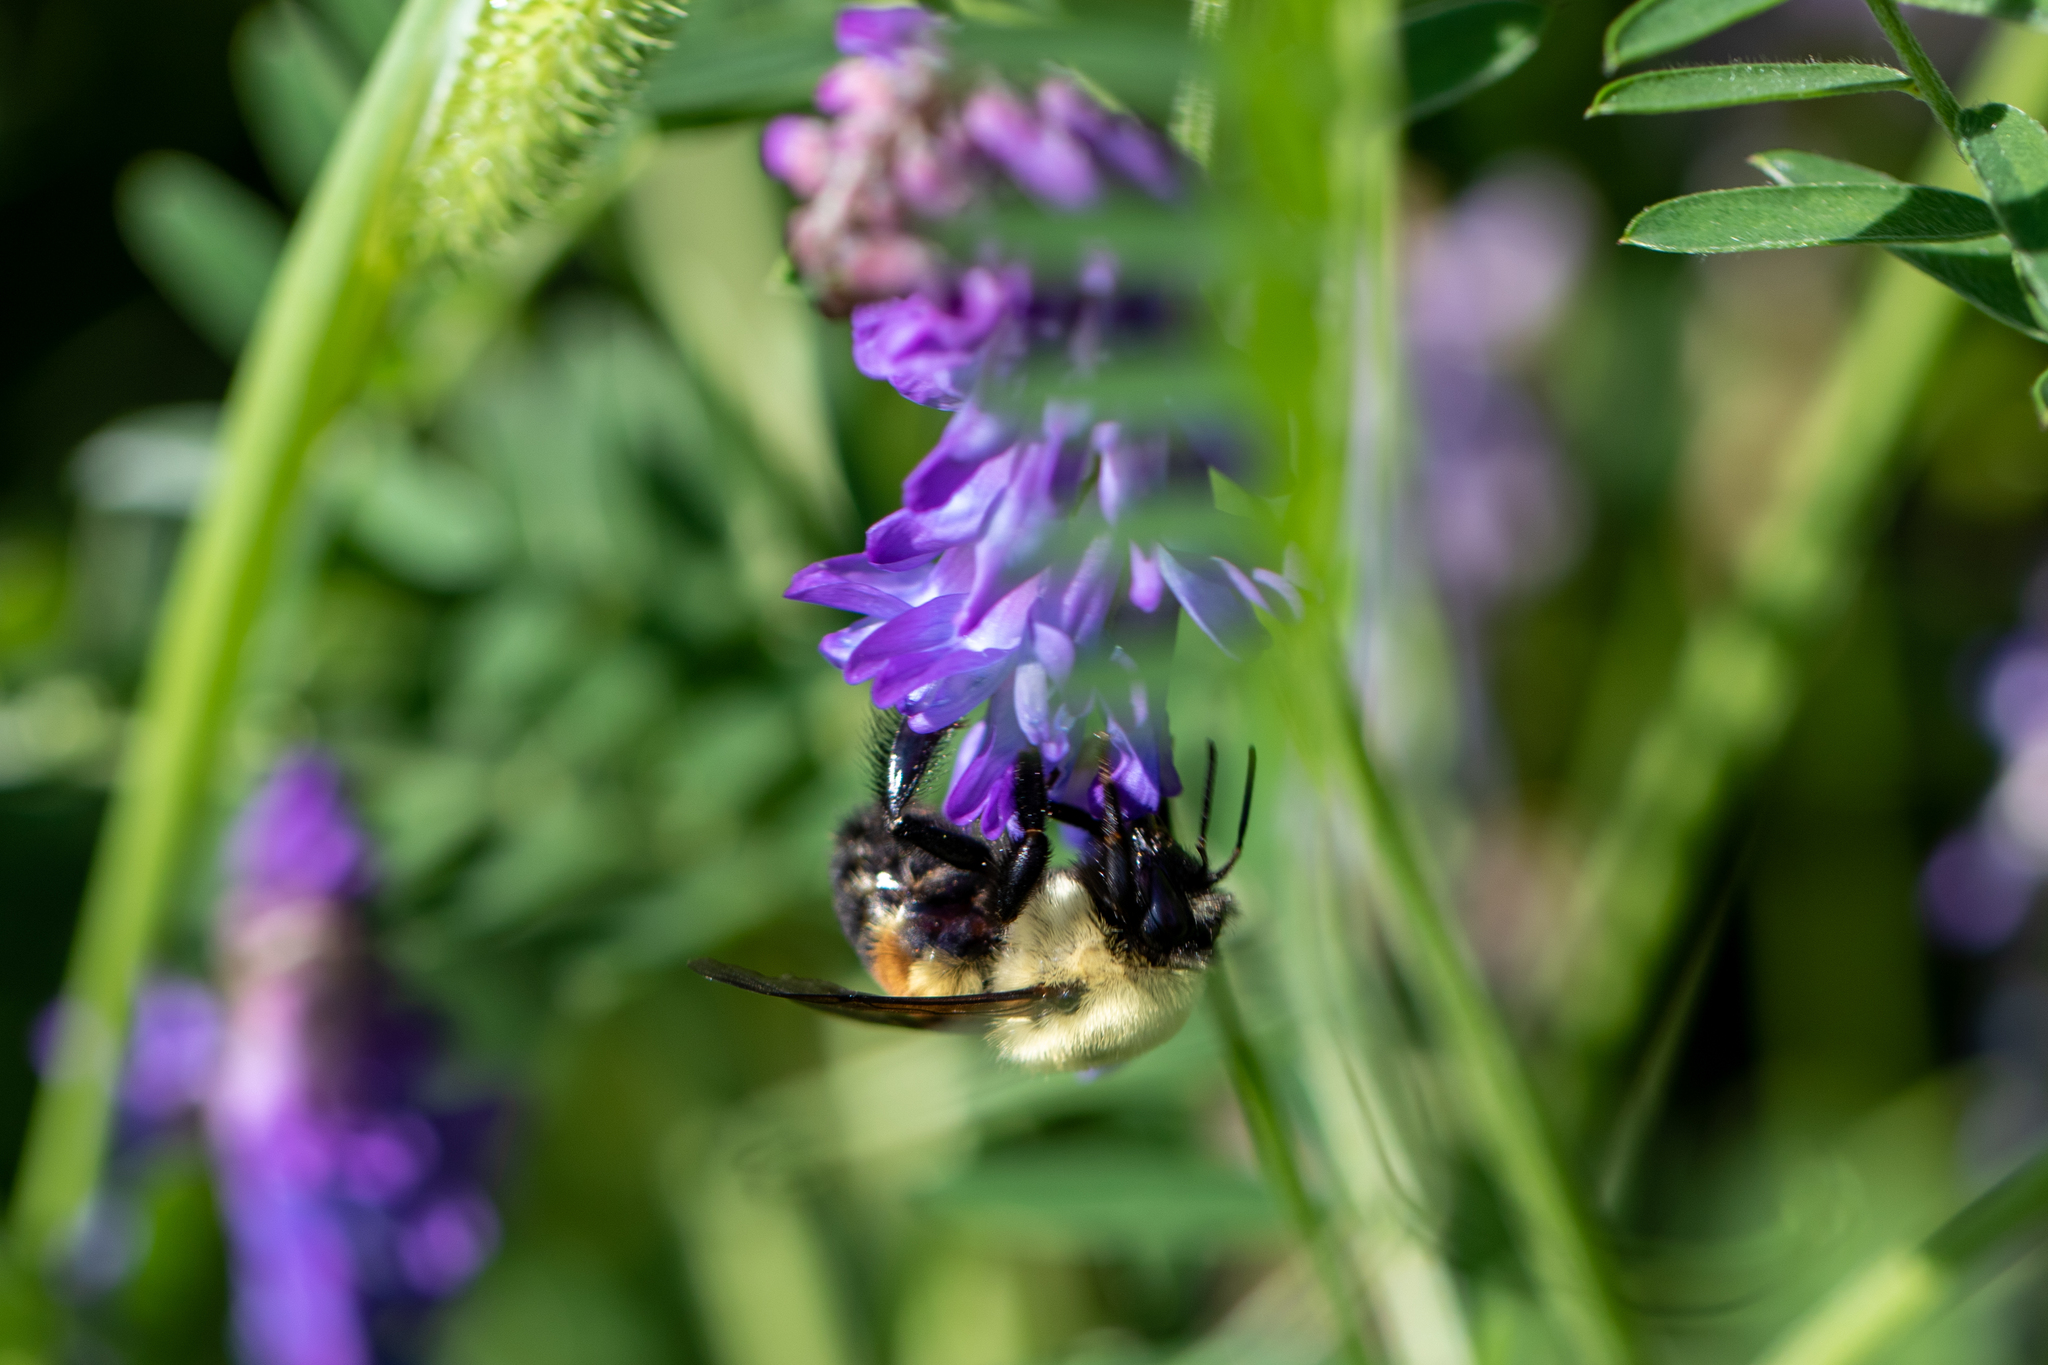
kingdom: Animalia
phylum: Arthropoda
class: Insecta
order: Hymenoptera
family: Apidae
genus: Bombus
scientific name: Bombus griseocollis
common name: Brown-belted bumble bee
